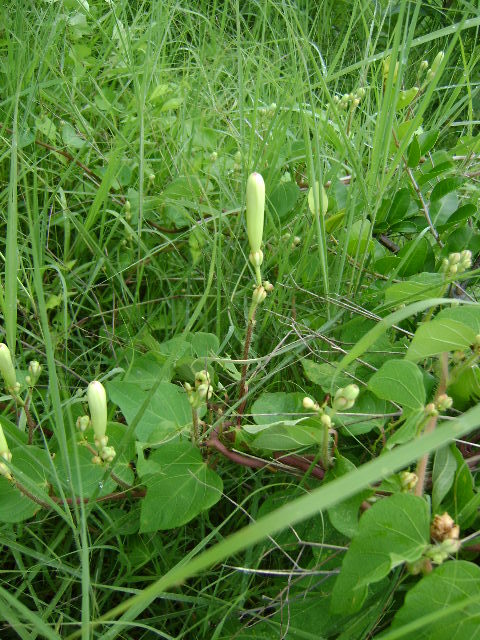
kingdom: Plantae
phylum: Tracheophyta
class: Magnoliopsida
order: Solanales
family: Convolvulaceae
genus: Ipomoea
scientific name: Ipomoea suaveolens
